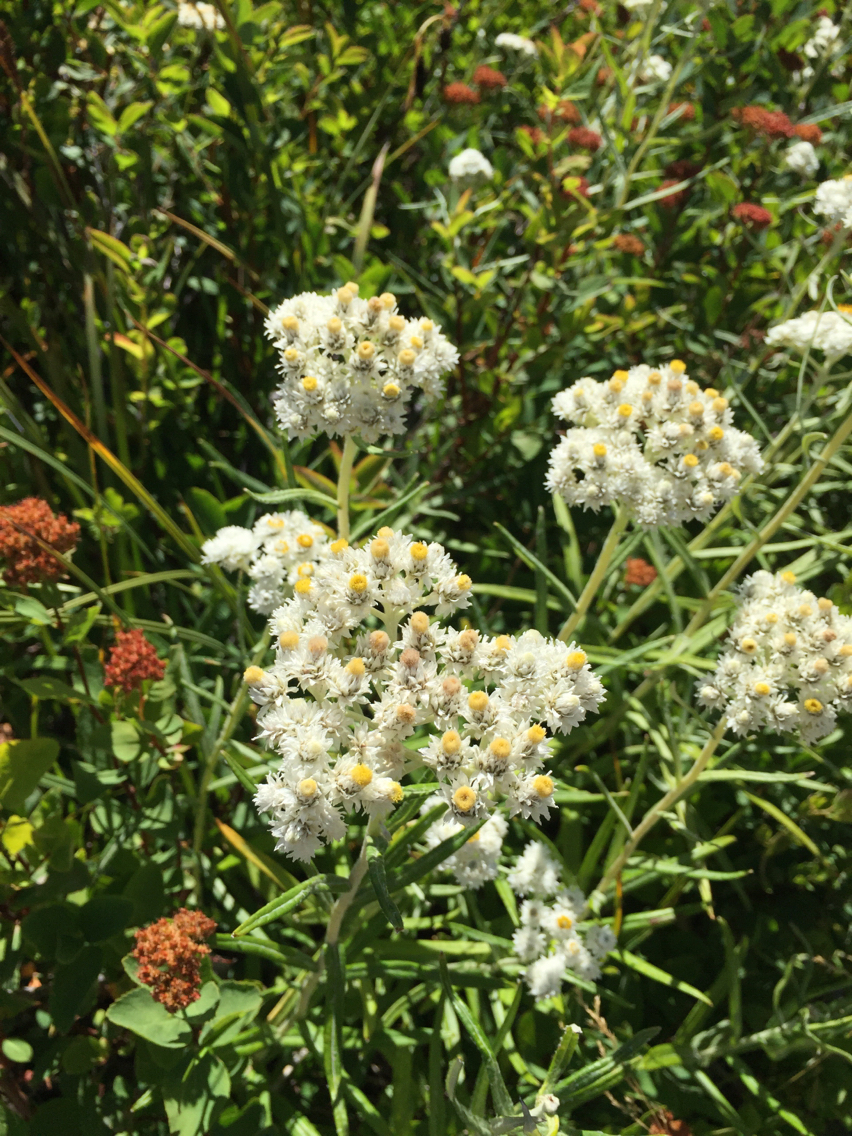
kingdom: Plantae
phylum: Tracheophyta
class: Magnoliopsida
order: Asterales
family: Asteraceae
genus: Anaphalis
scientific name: Anaphalis margaritacea
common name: Pearly everlasting
